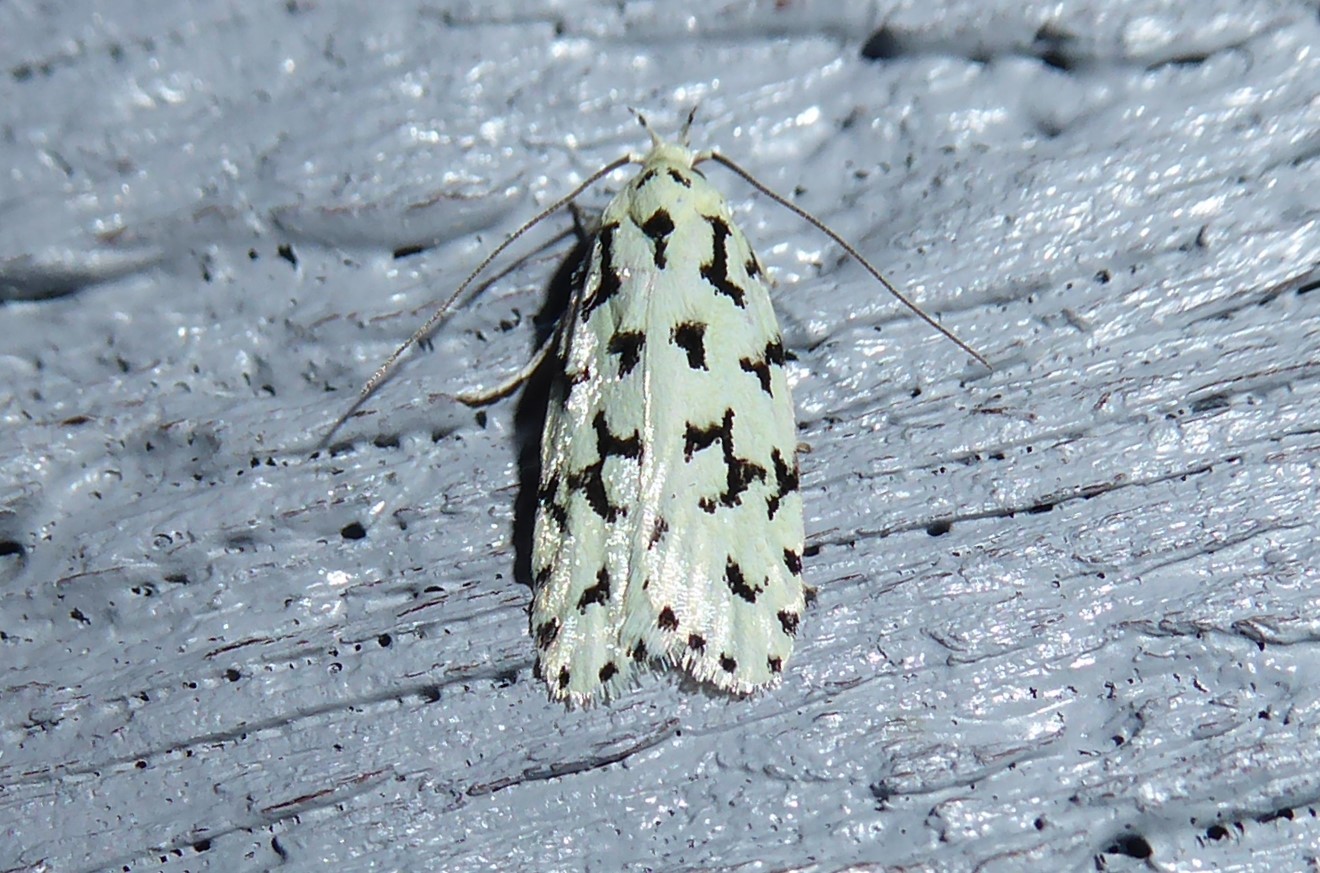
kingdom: Animalia
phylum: Arthropoda
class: Insecta
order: Lepidoptera
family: Oecophoridae
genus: Izatha
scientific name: Izatha huttoni
